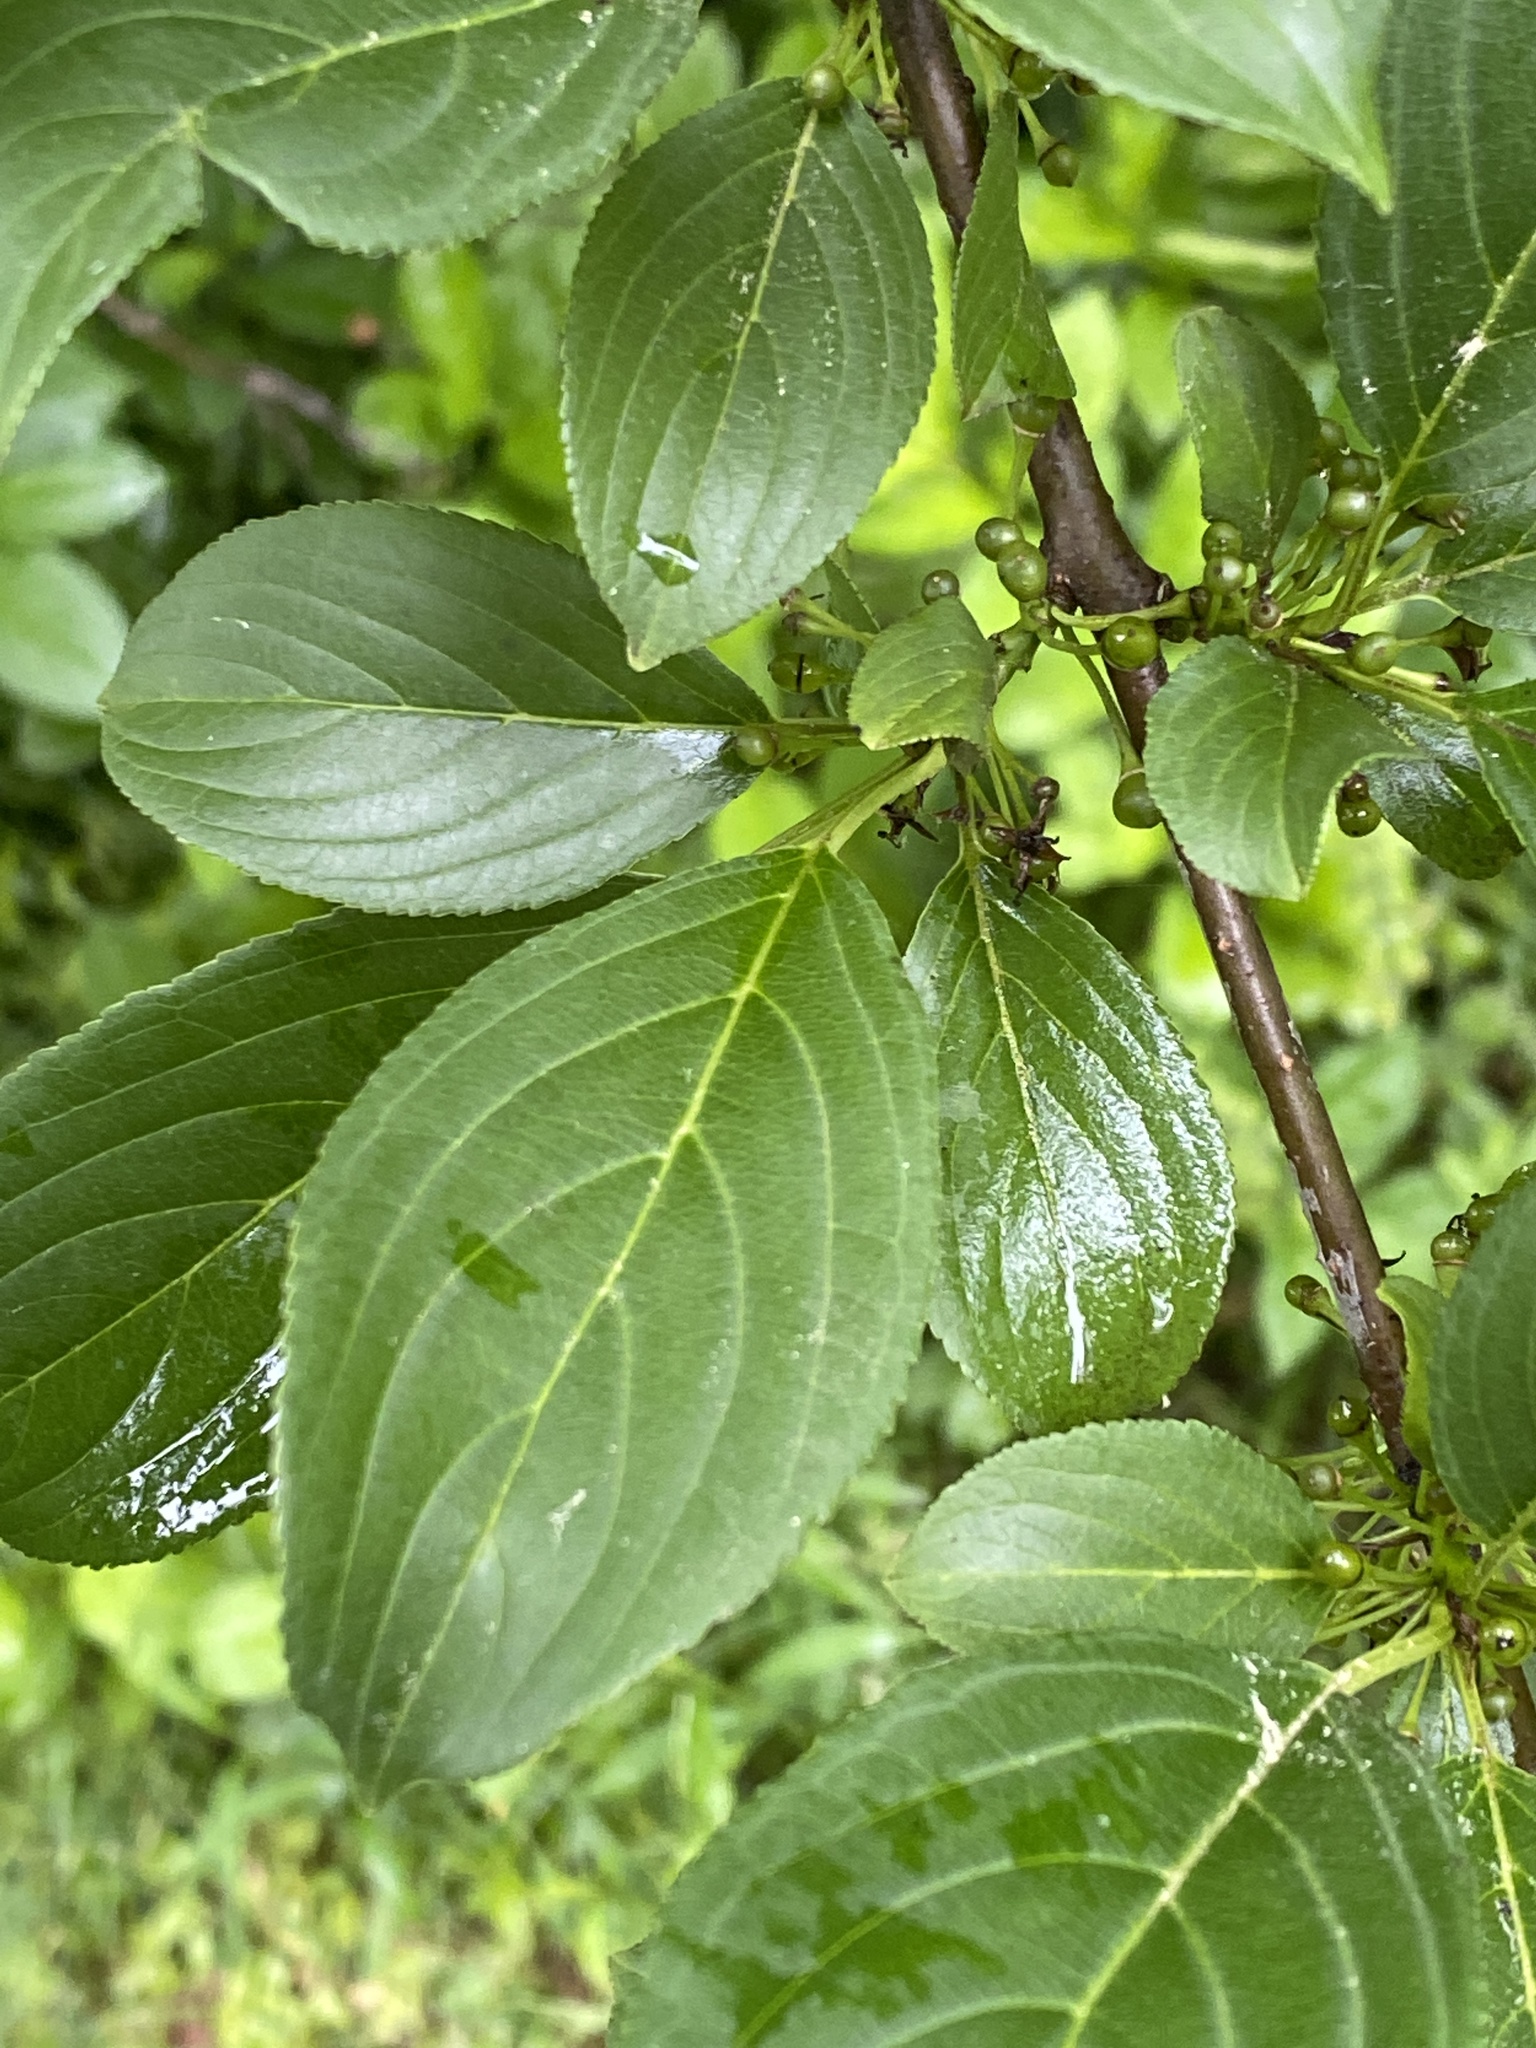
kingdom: Plantae
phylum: Tracheophyta
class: Magnoliopsida
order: Rosales
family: Rhamnaceae
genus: Rhamnus
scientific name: Rhamnus virgata
